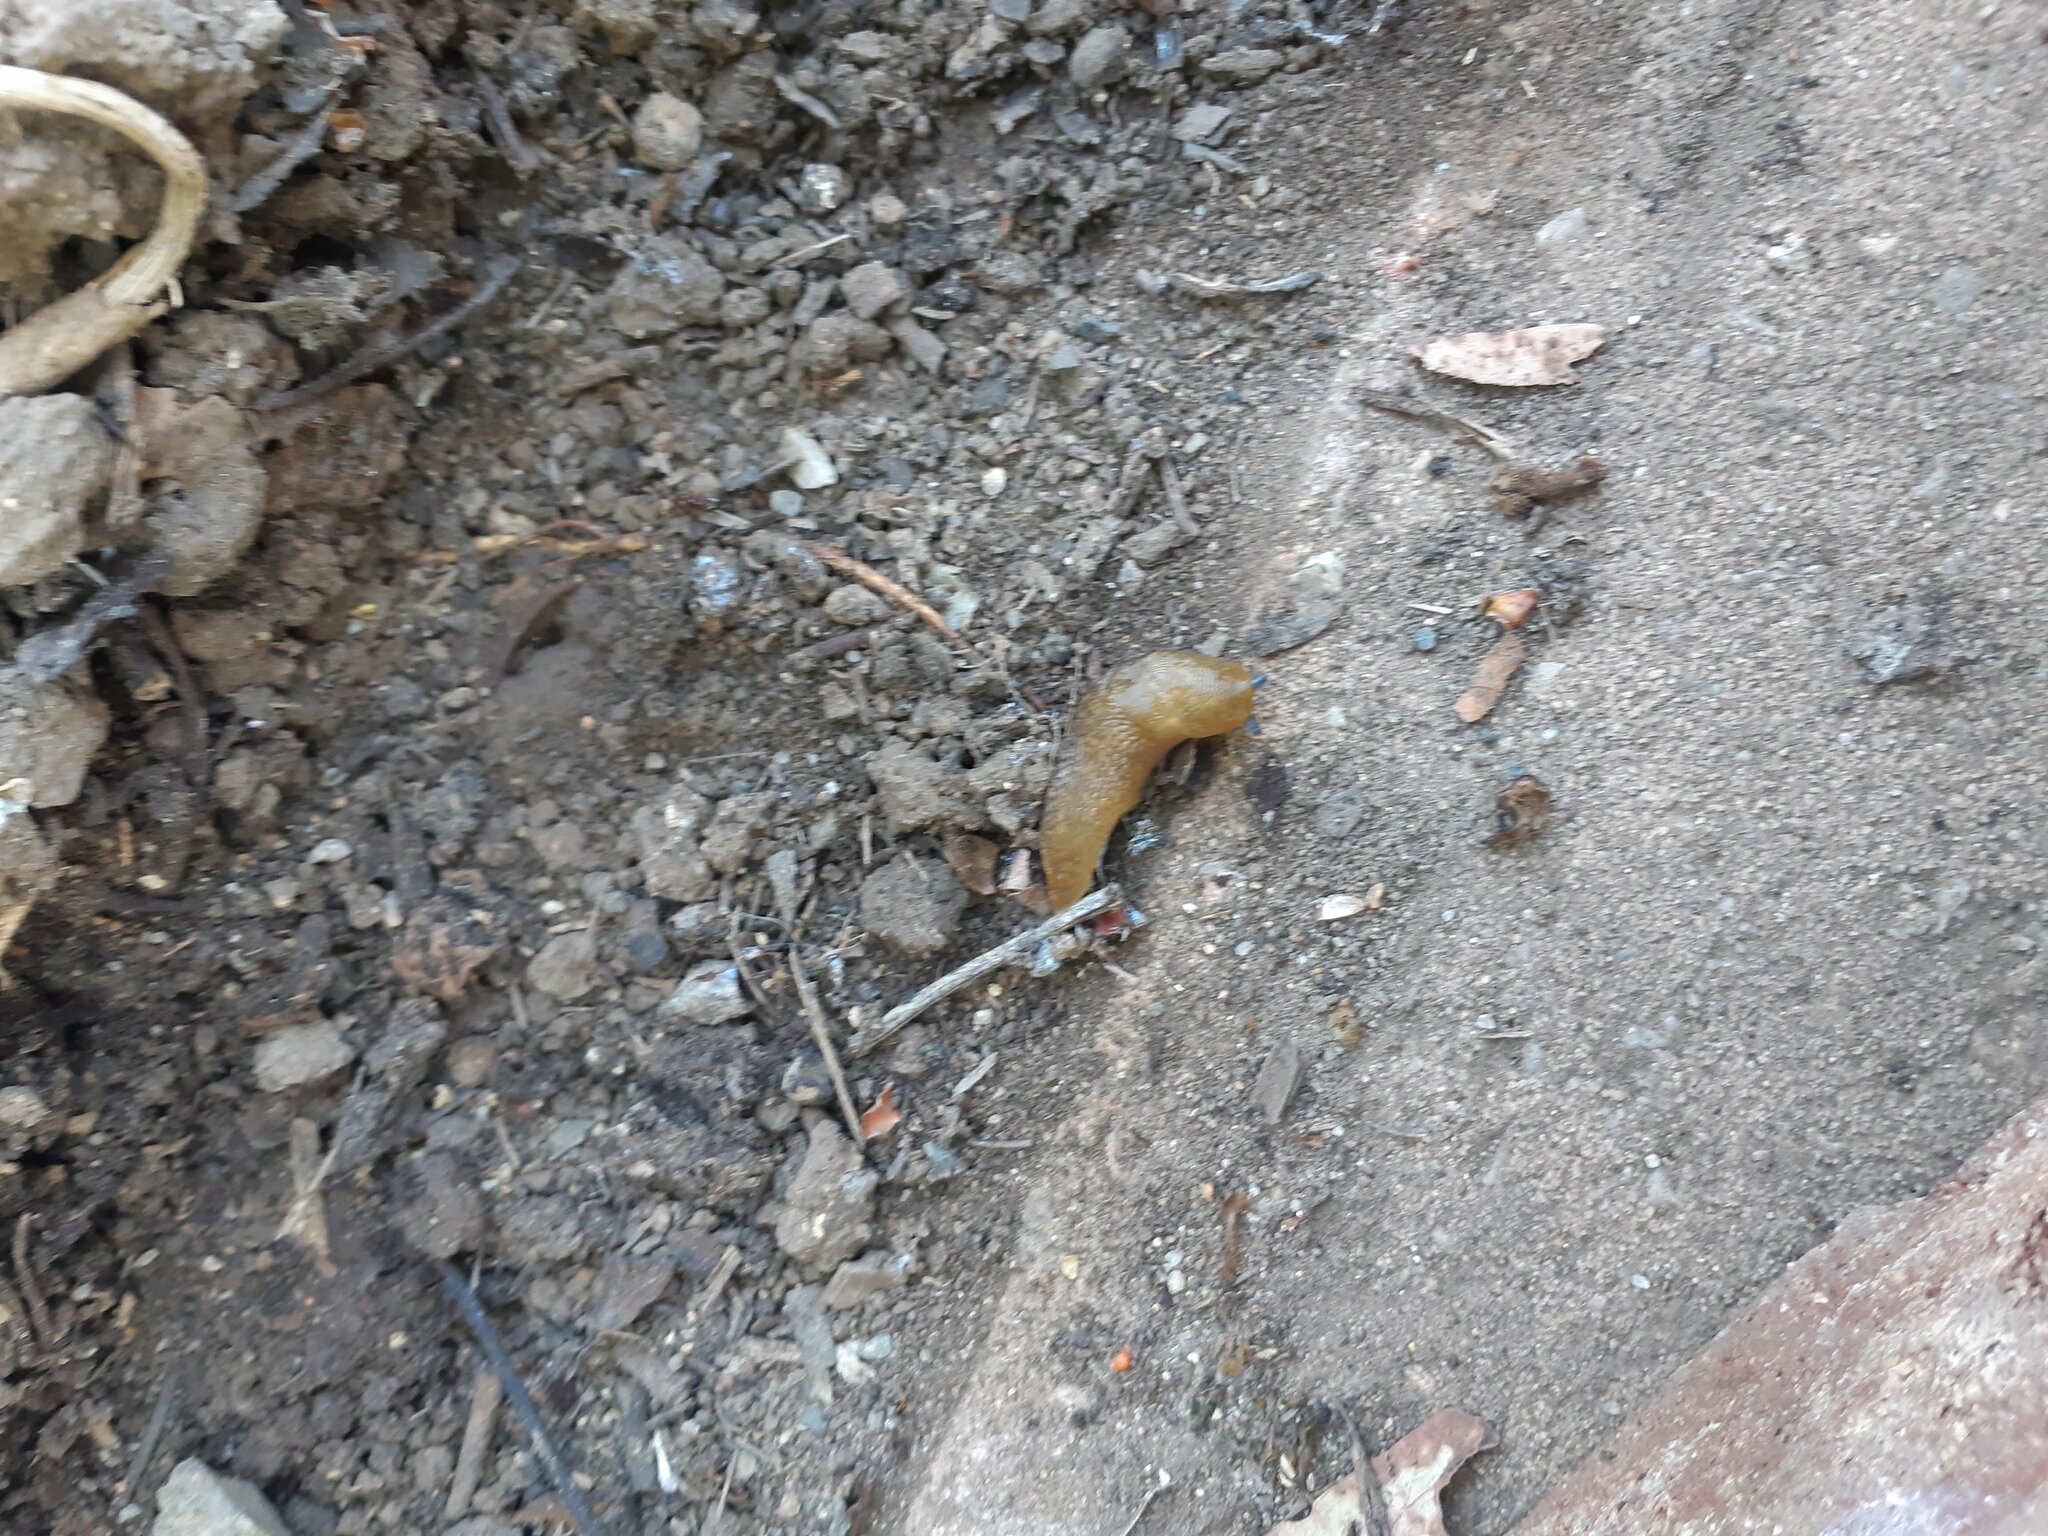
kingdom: Animalia
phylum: Mollusca
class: Gastropoda
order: Stylommatophora
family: Limacidae
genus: Limacus
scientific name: Limacus flavus
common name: Yellow gardenslug
